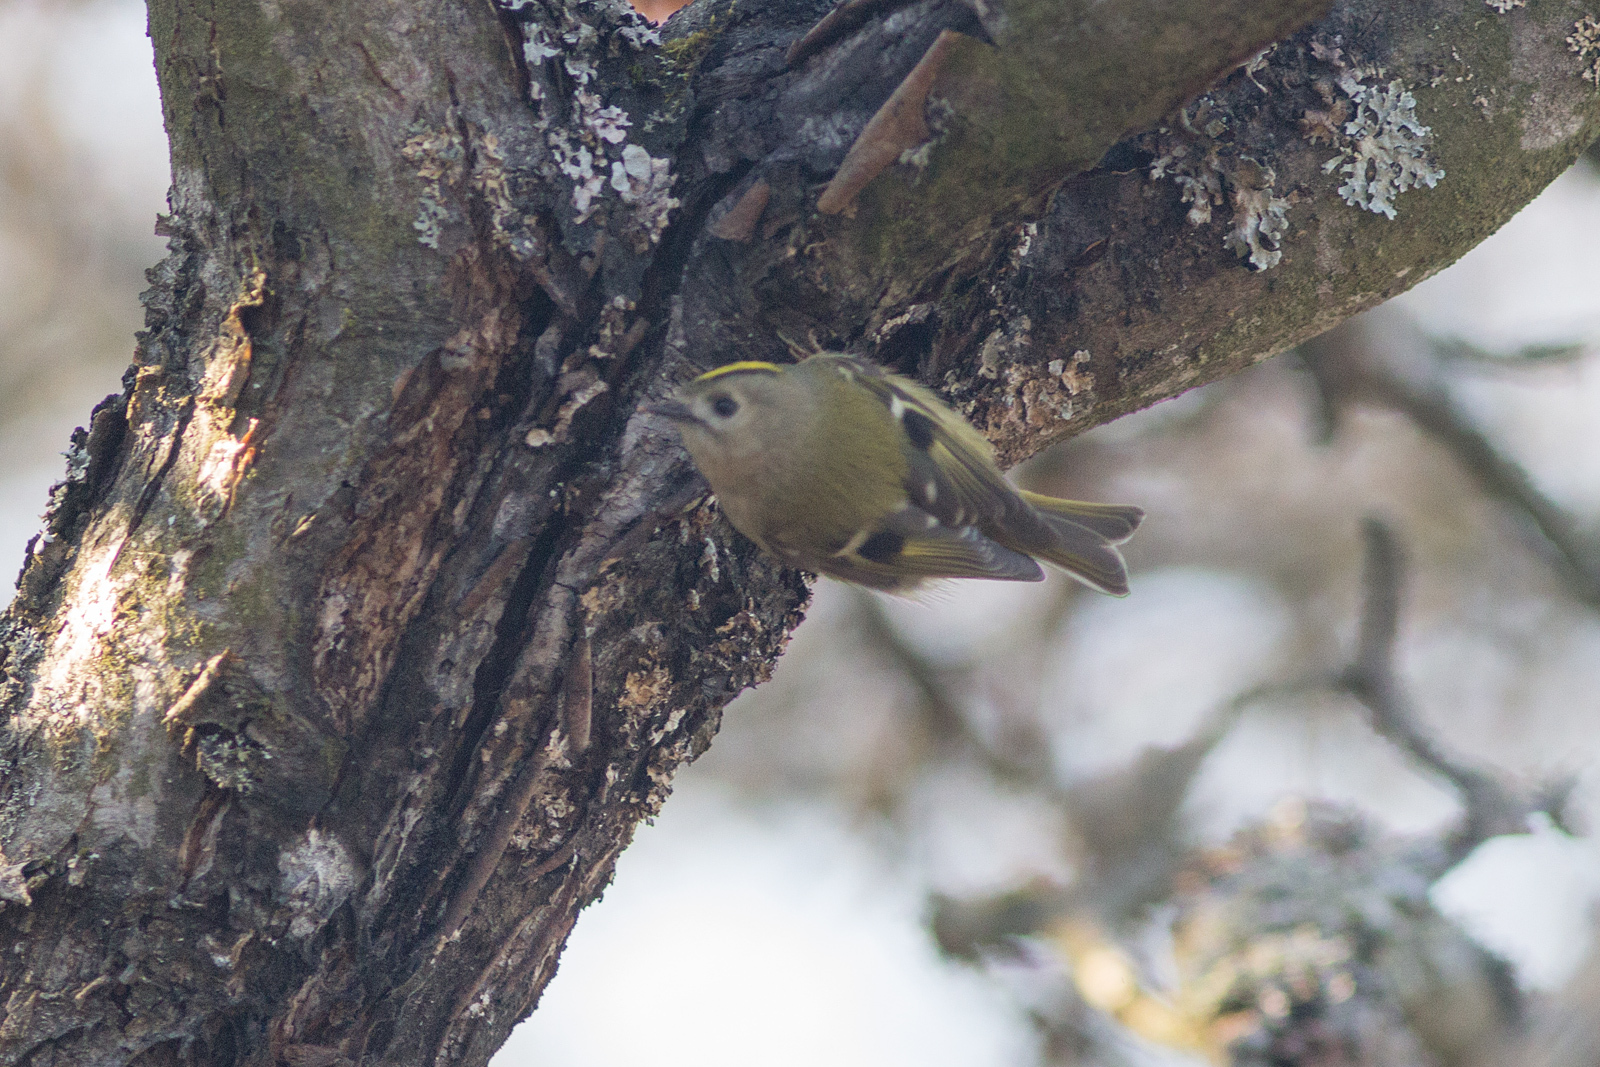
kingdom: Animalia
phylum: Chordata
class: Aves
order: Passeriformes
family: Regulidae
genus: Regulus
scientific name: Regulus regulus
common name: Goldcrest
